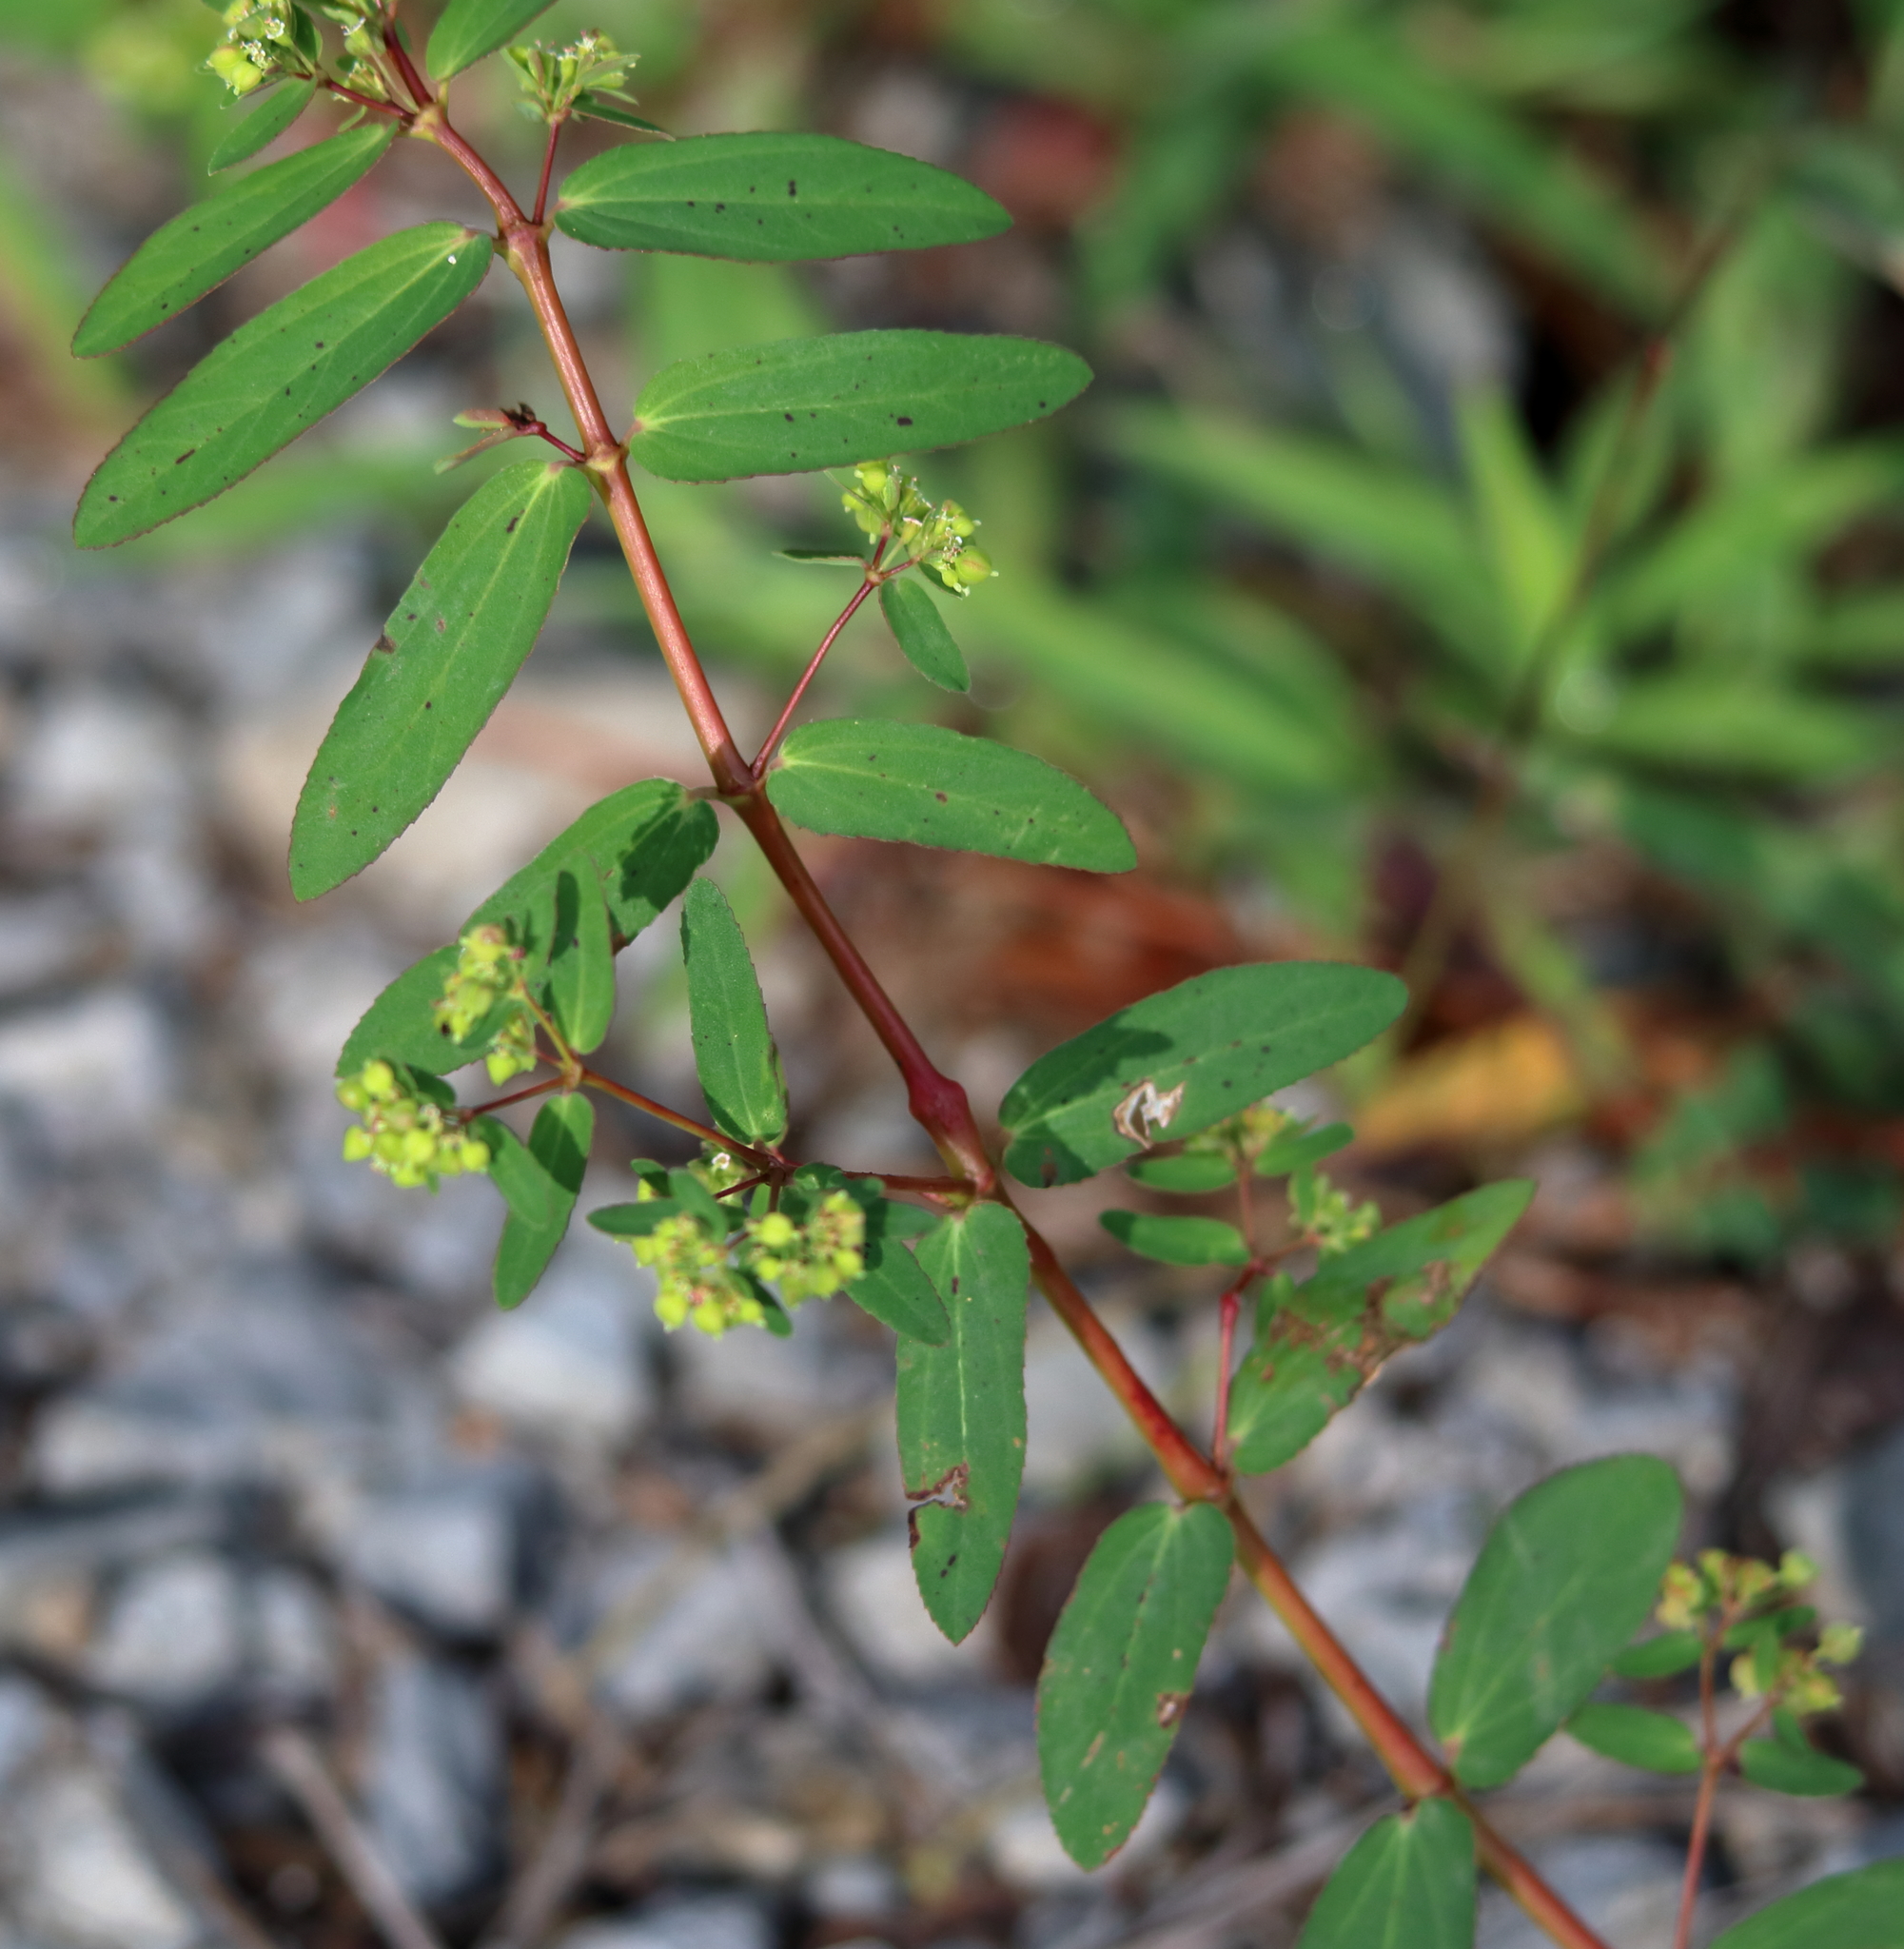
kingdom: Plantae
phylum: Tracheophyta
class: Magnoliopsida
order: Malpighiales
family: Euphorbiaceae
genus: Euphorbia
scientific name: Euphorbia hyssopifolia
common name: Hyssopleaf sandmat
